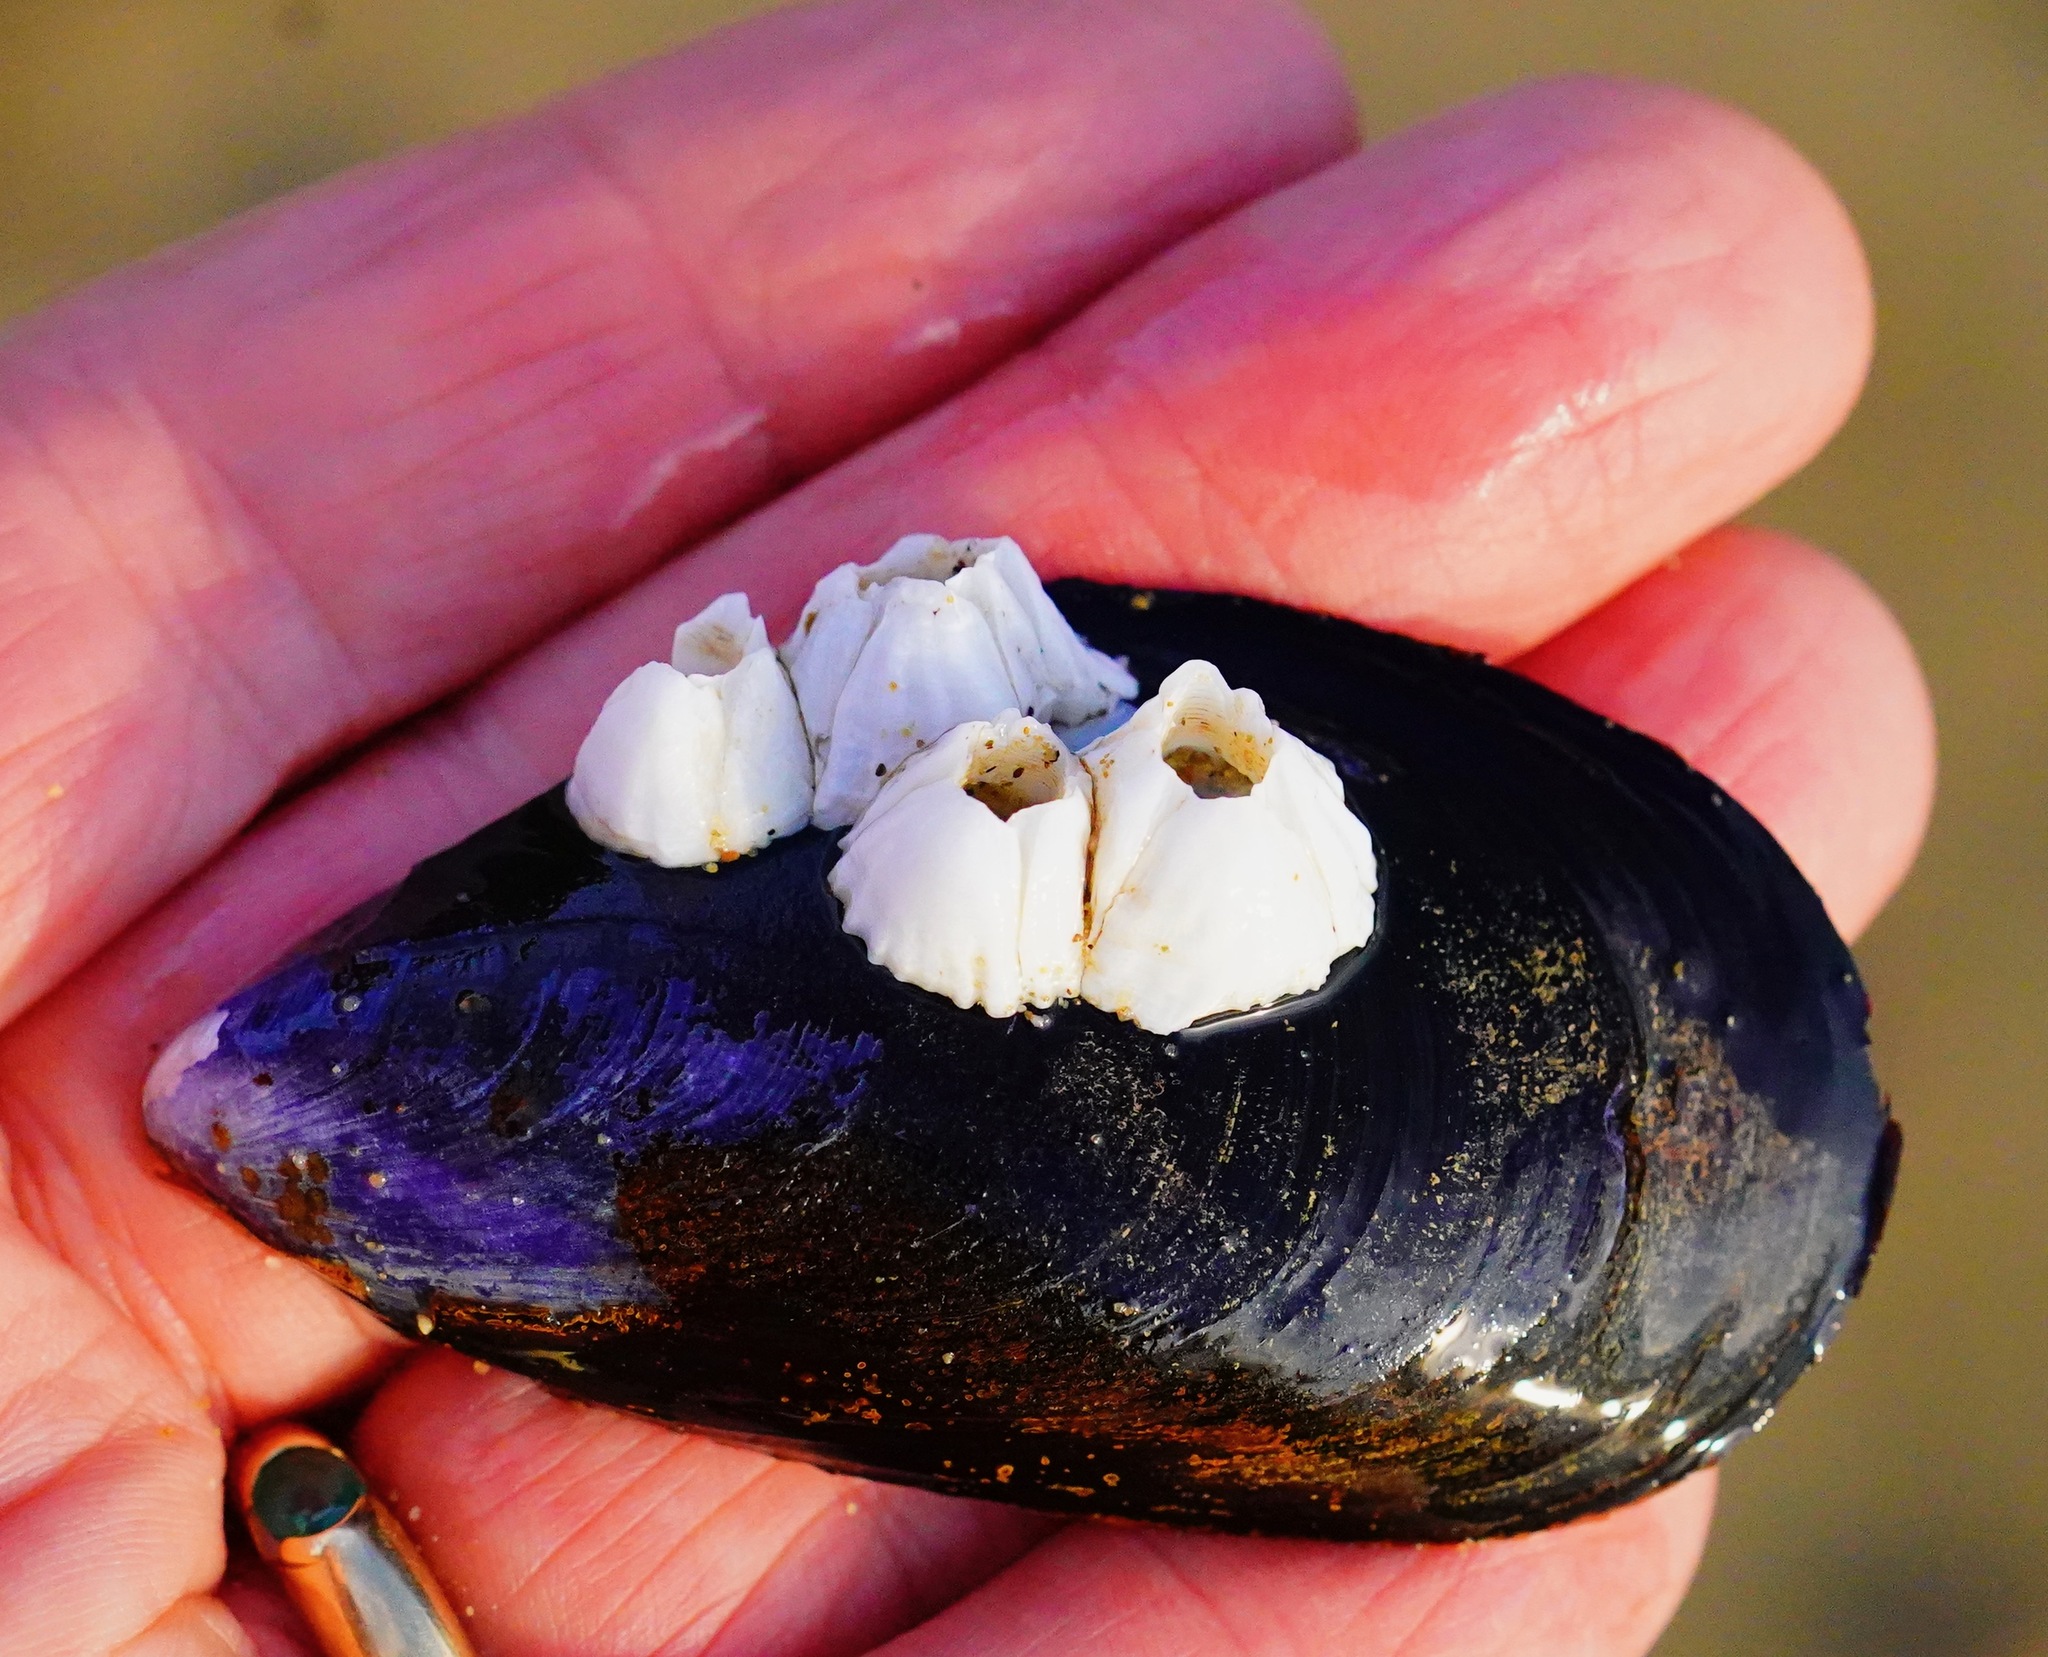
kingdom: Animalia
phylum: Mollusca
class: Bivalvia
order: Mytilida
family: Mytilidae
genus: Mytilus
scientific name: Mytilus
